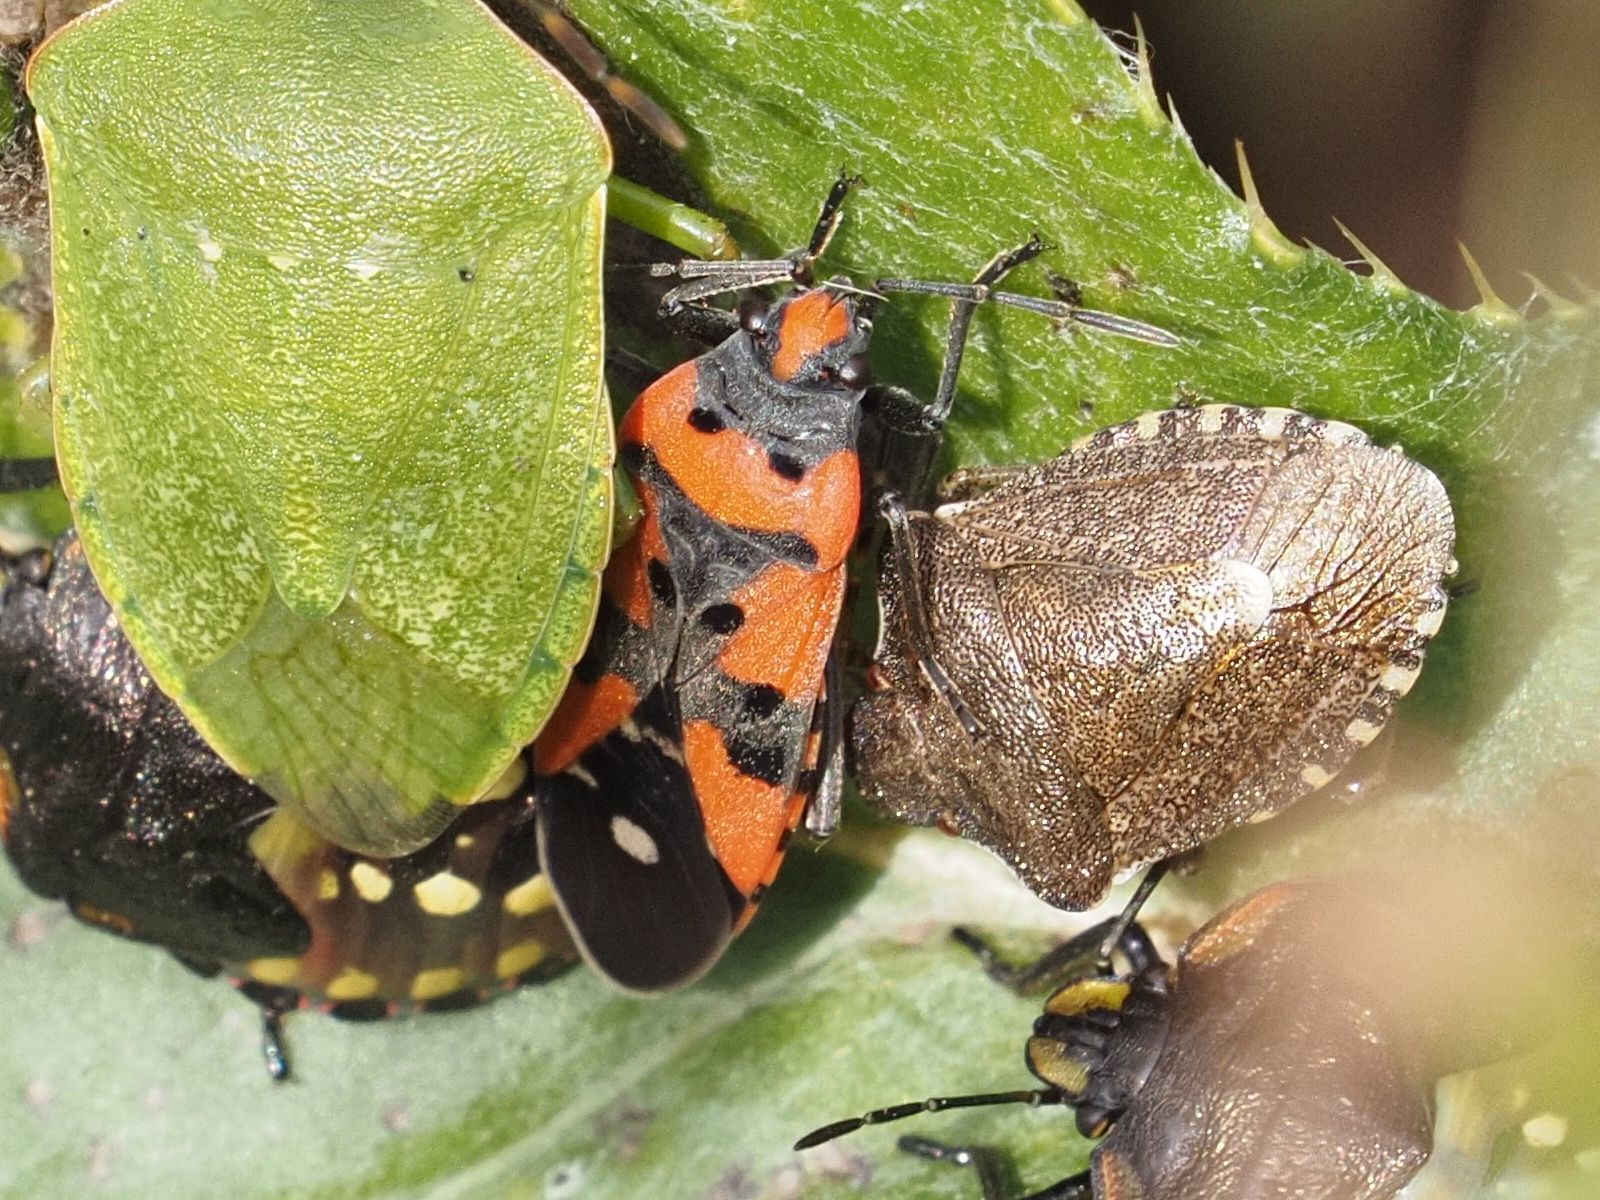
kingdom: Animalia
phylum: Arthropoda
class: Insecta
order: Hemiptera
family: Lygaeidae
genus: Lygaeus
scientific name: Lygaeus equestris
